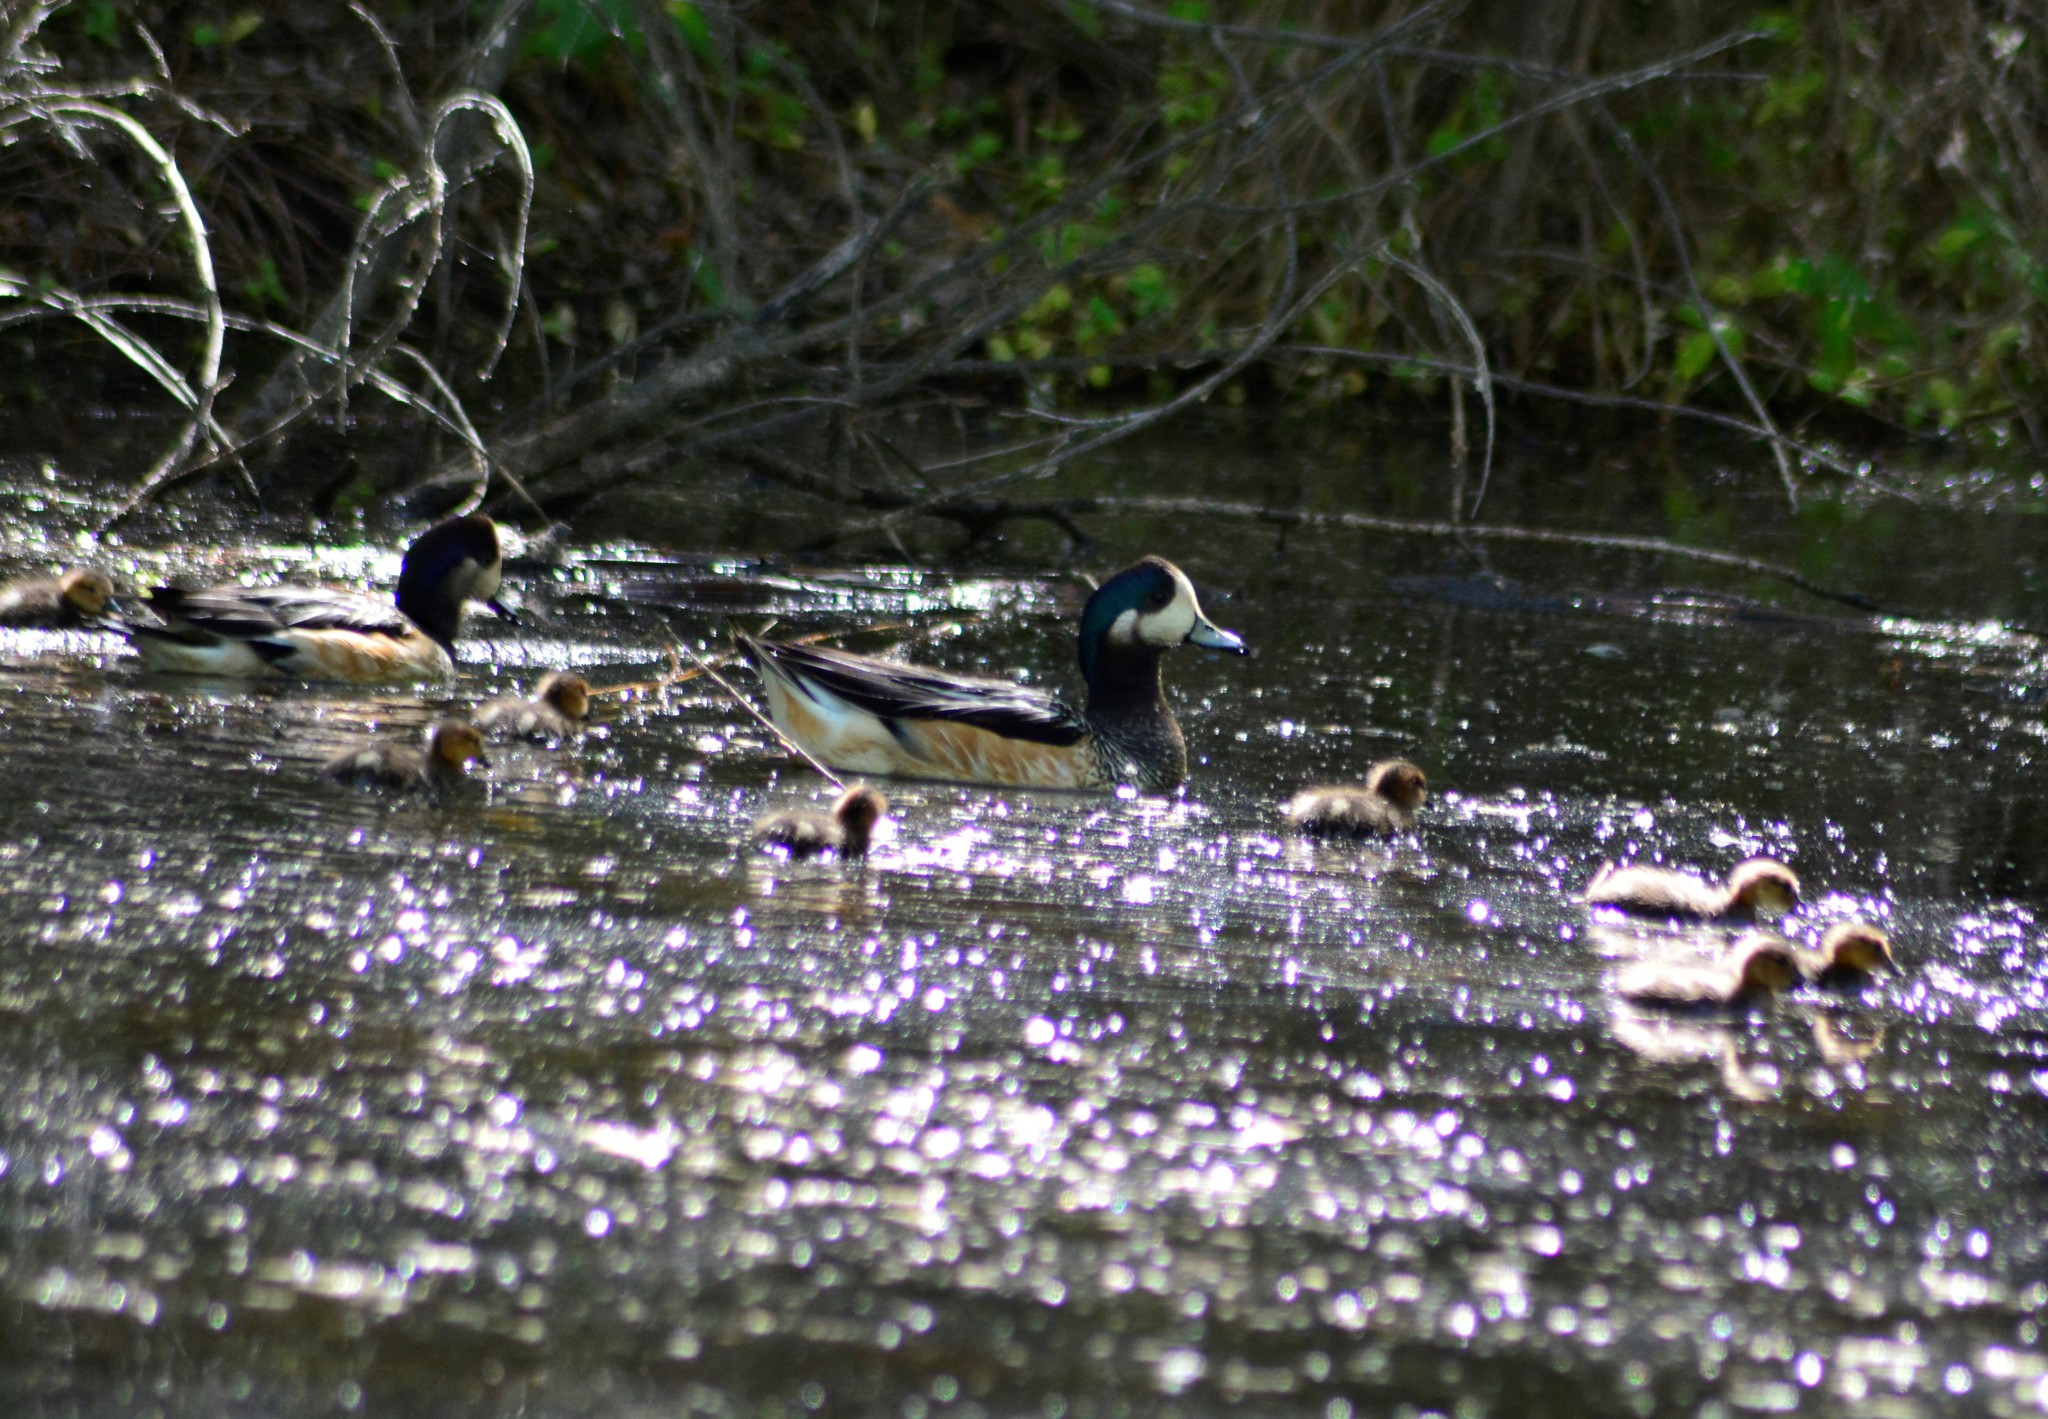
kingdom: Animalia
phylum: Chordata
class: Aves
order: Anseriformes
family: Anatidae
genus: Mareca
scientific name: Mareca sibilatrix
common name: Chiloe wigeon
